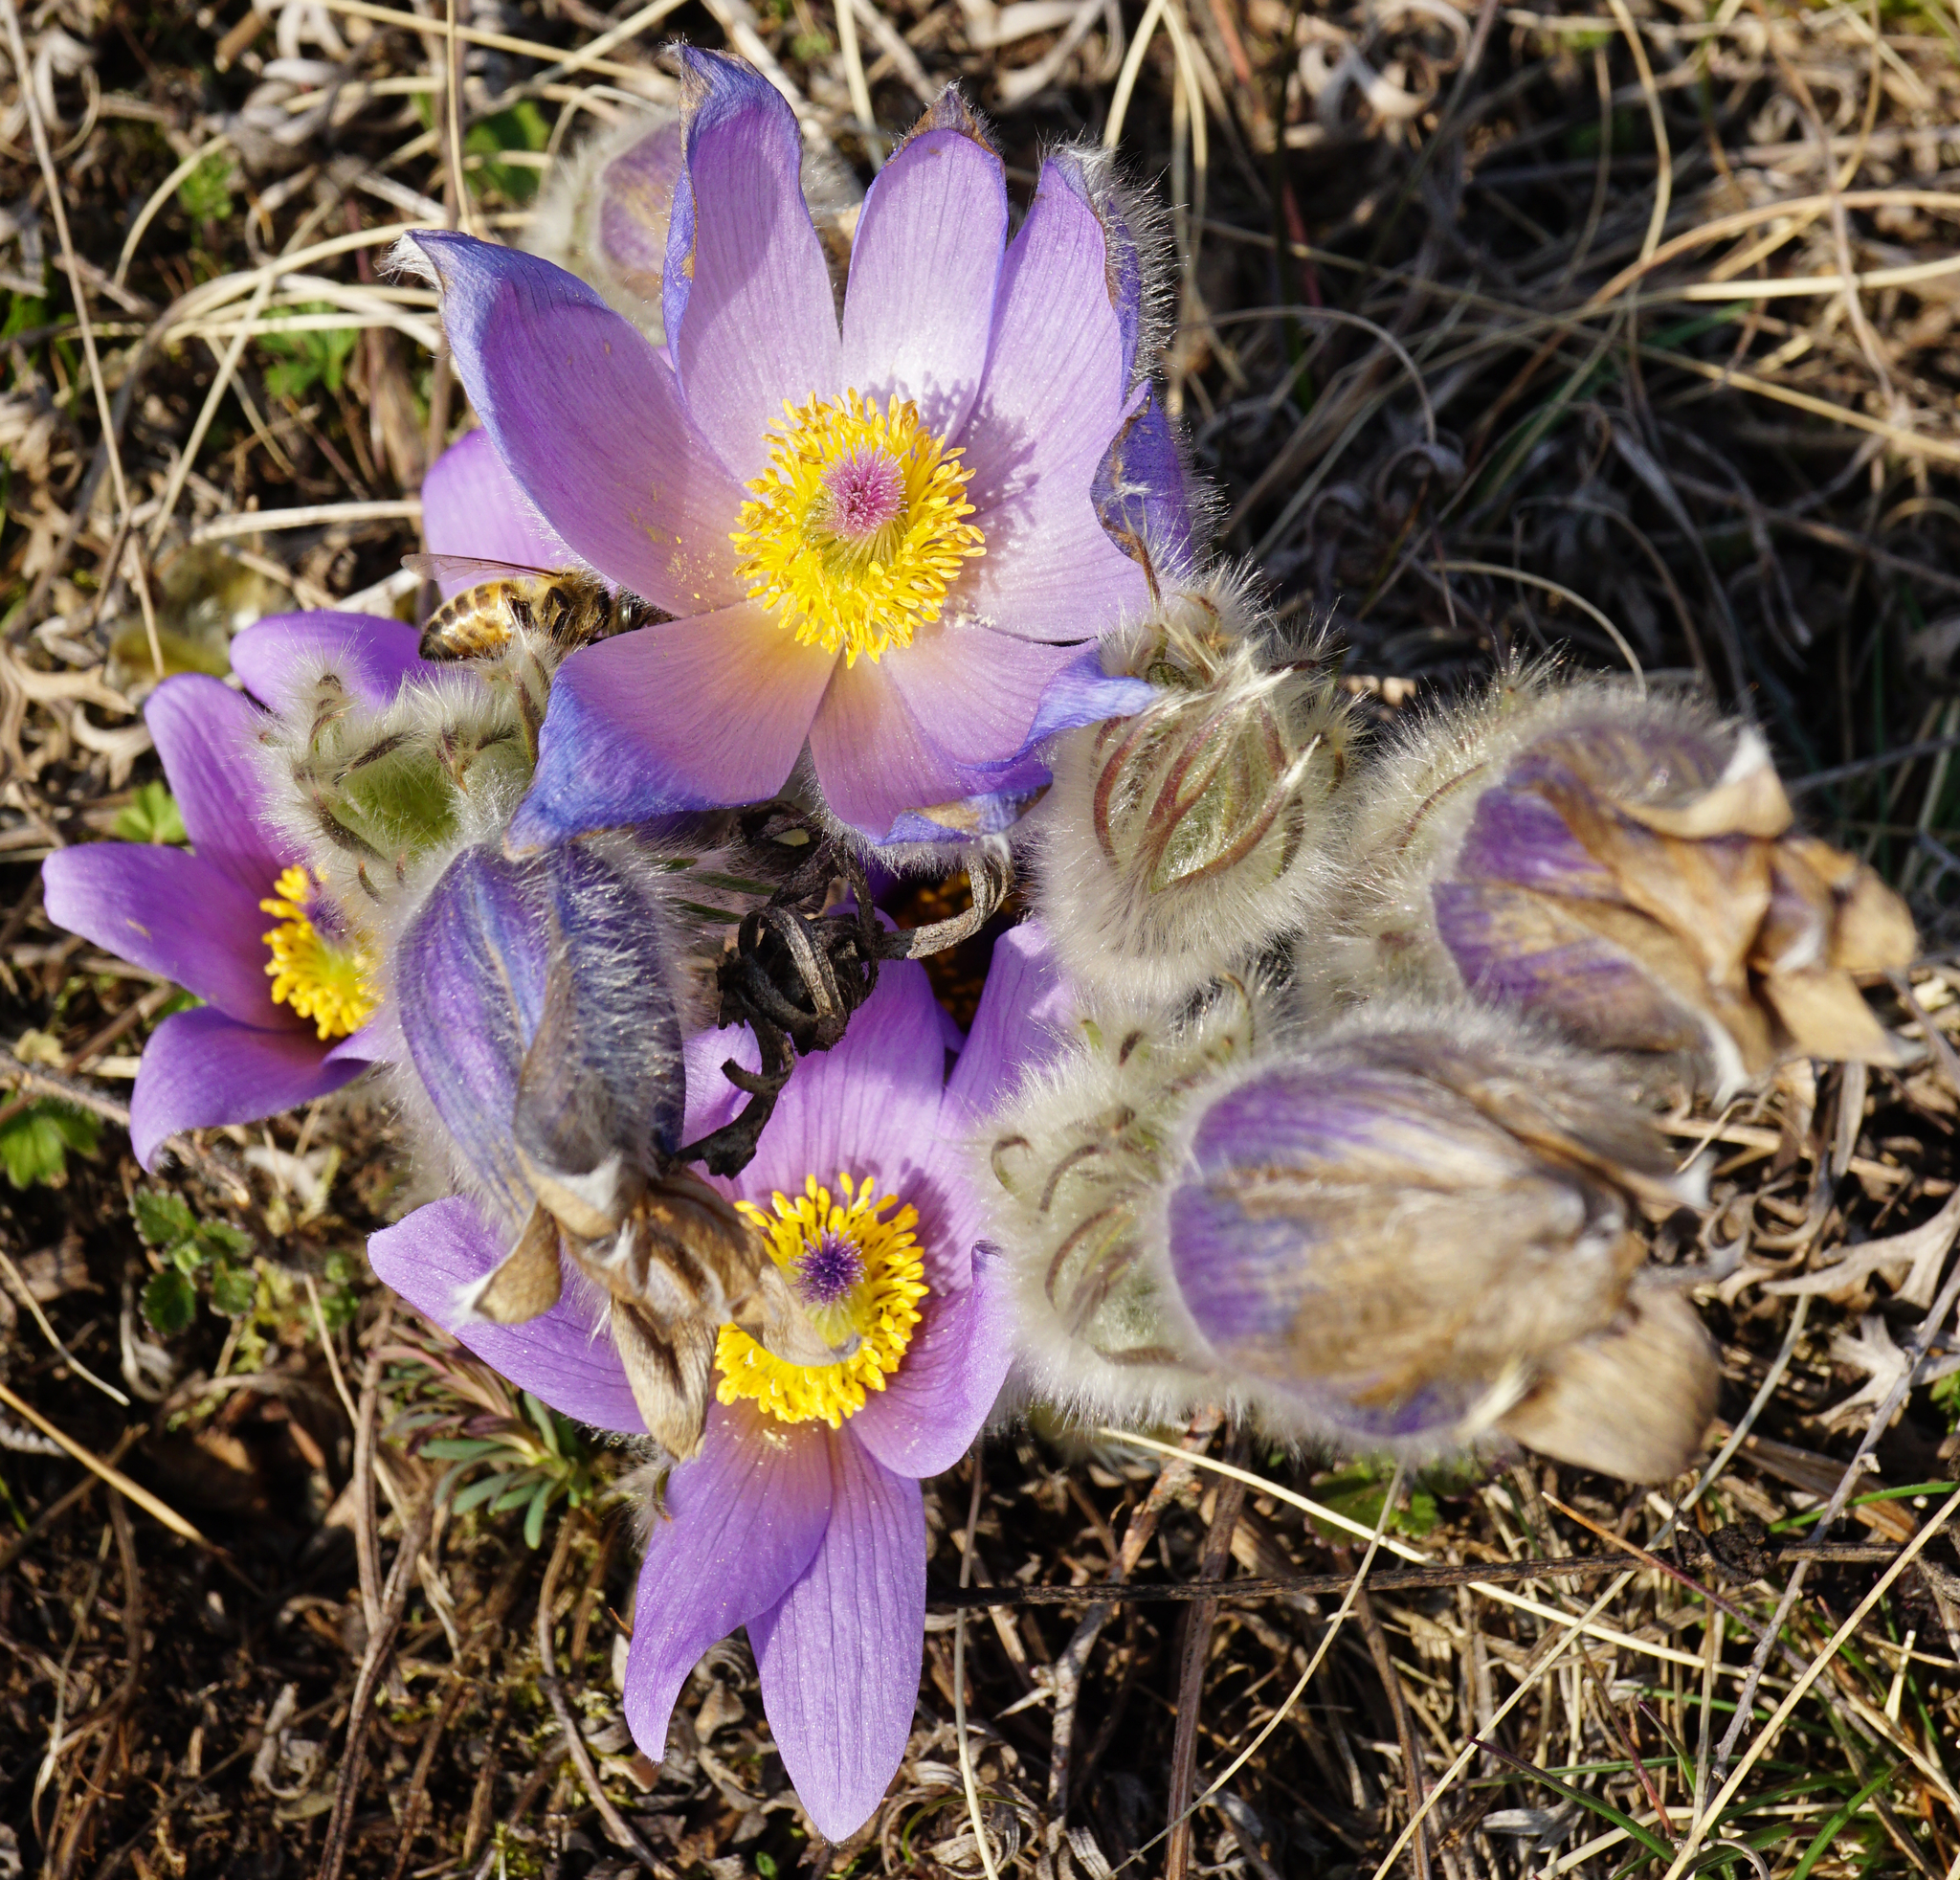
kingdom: Plantae
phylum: Tracheophyta
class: Magnoliopsida
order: Ranunculales
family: Ranunculaceae
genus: Pulsatilla
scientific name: Pulsatilla grandis
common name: Greater pasque flower
